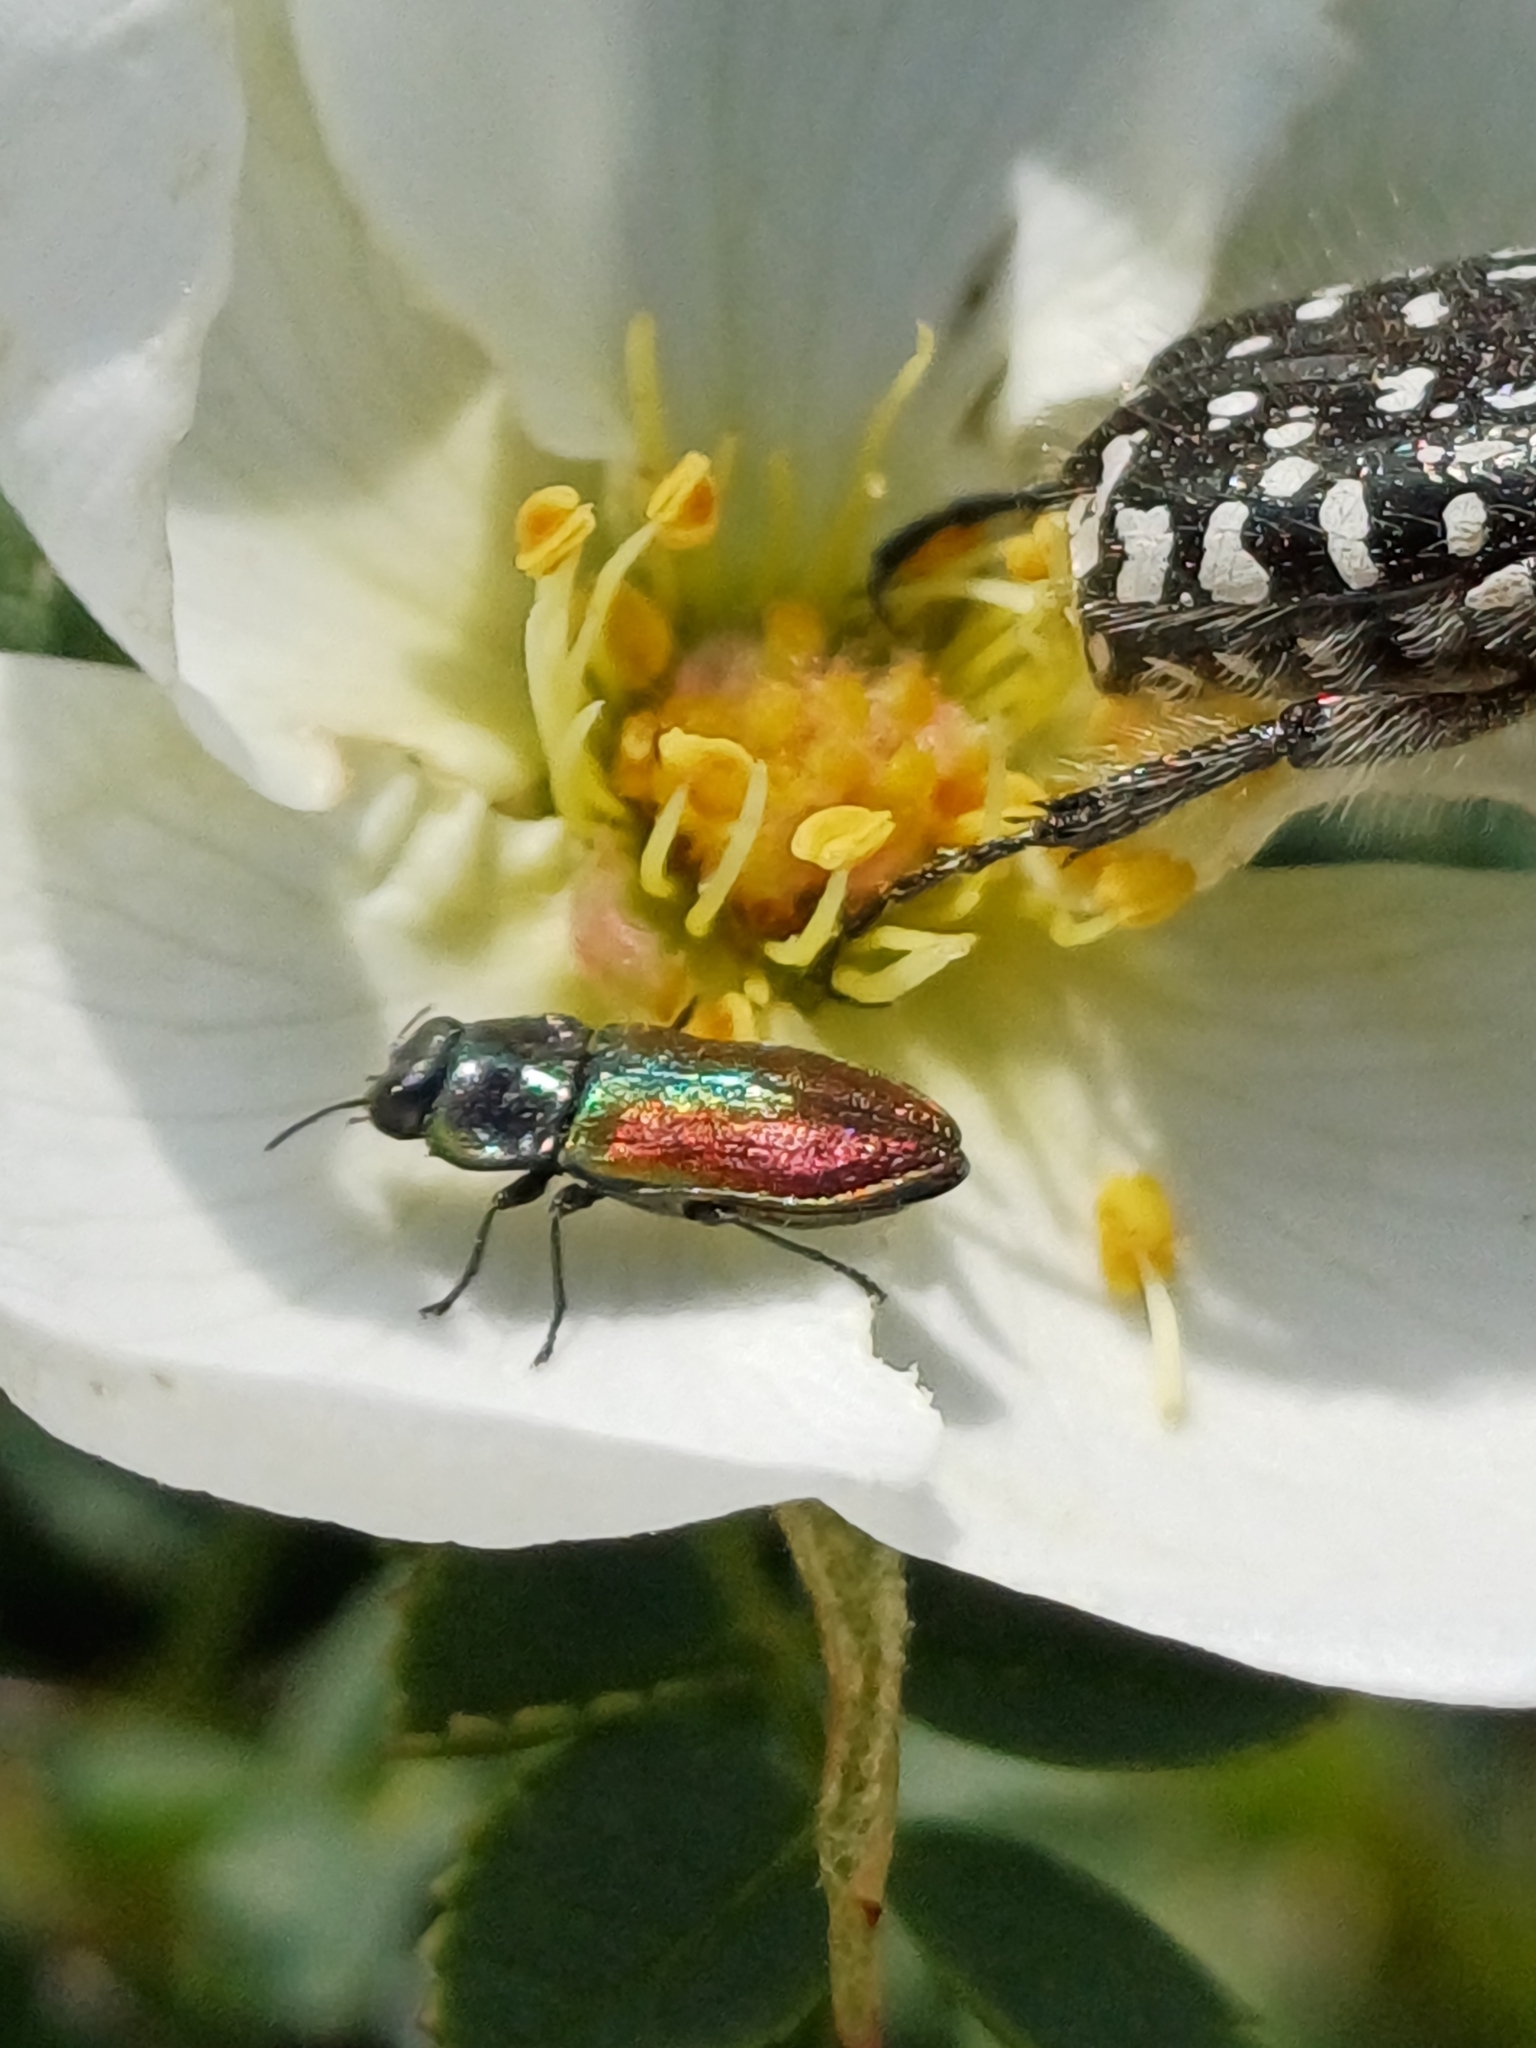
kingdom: Animalia
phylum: Arthropoda
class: Insecta
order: Coleoptera
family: Buprestidae
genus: Anthaxia
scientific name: Anthaxia fulgurans
